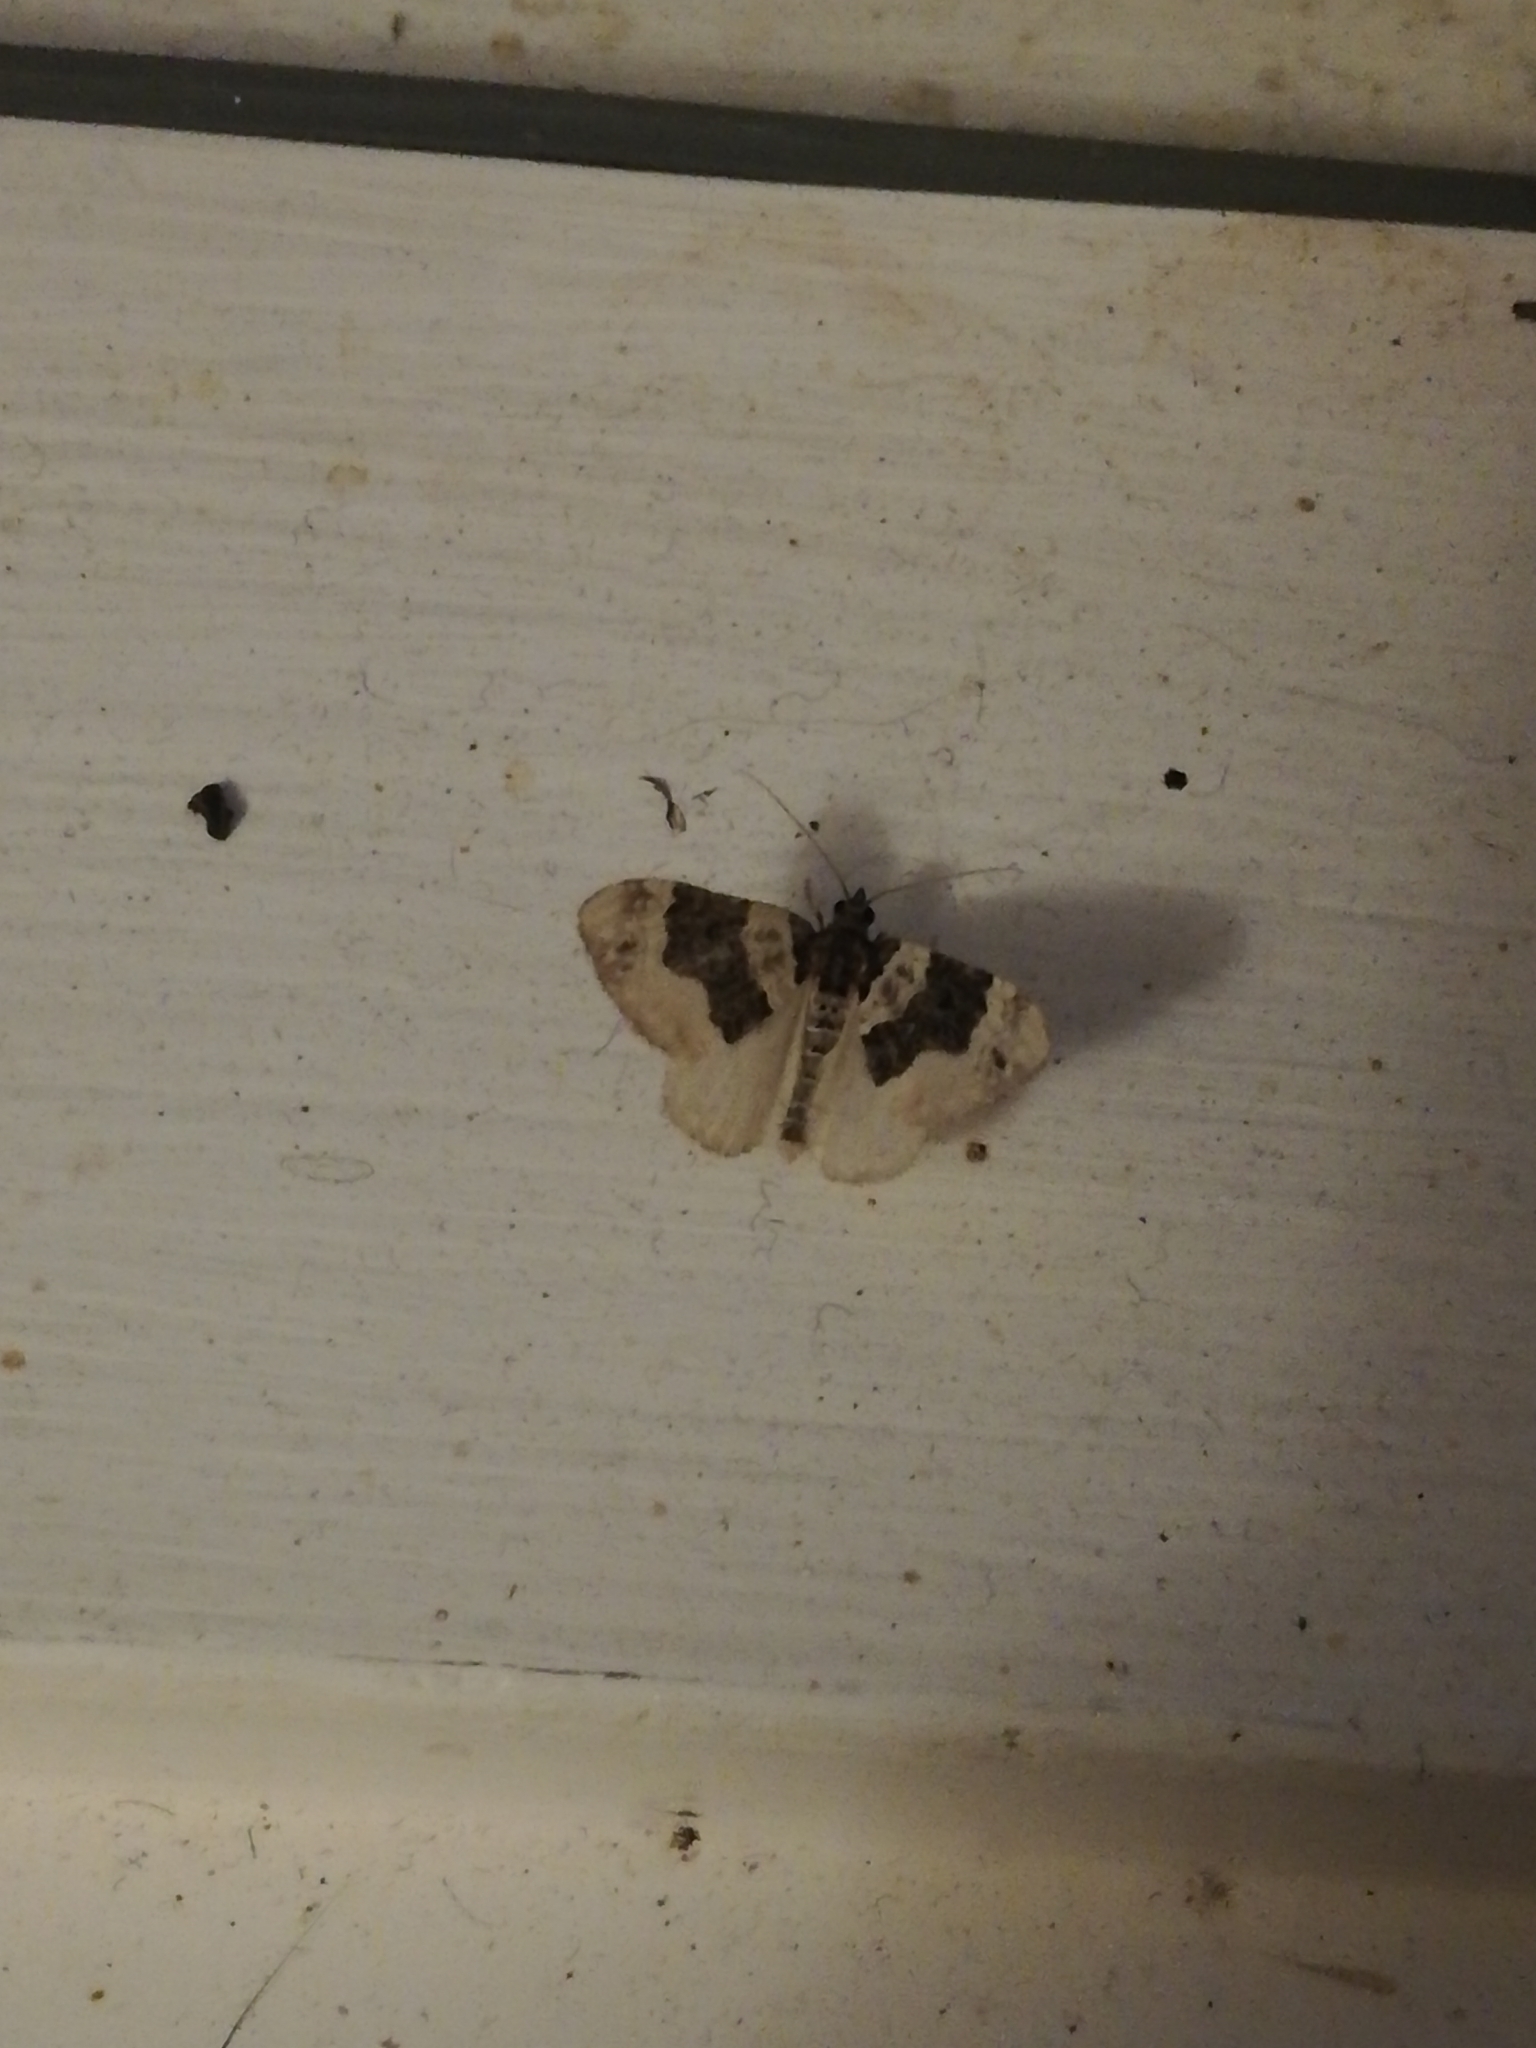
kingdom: Animalia
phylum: Arthropoda
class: Insecta
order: Lepidoptera
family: Geometridae
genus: Cosmorhoe
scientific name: Cosmorhoe ocellata
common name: Purple bar
